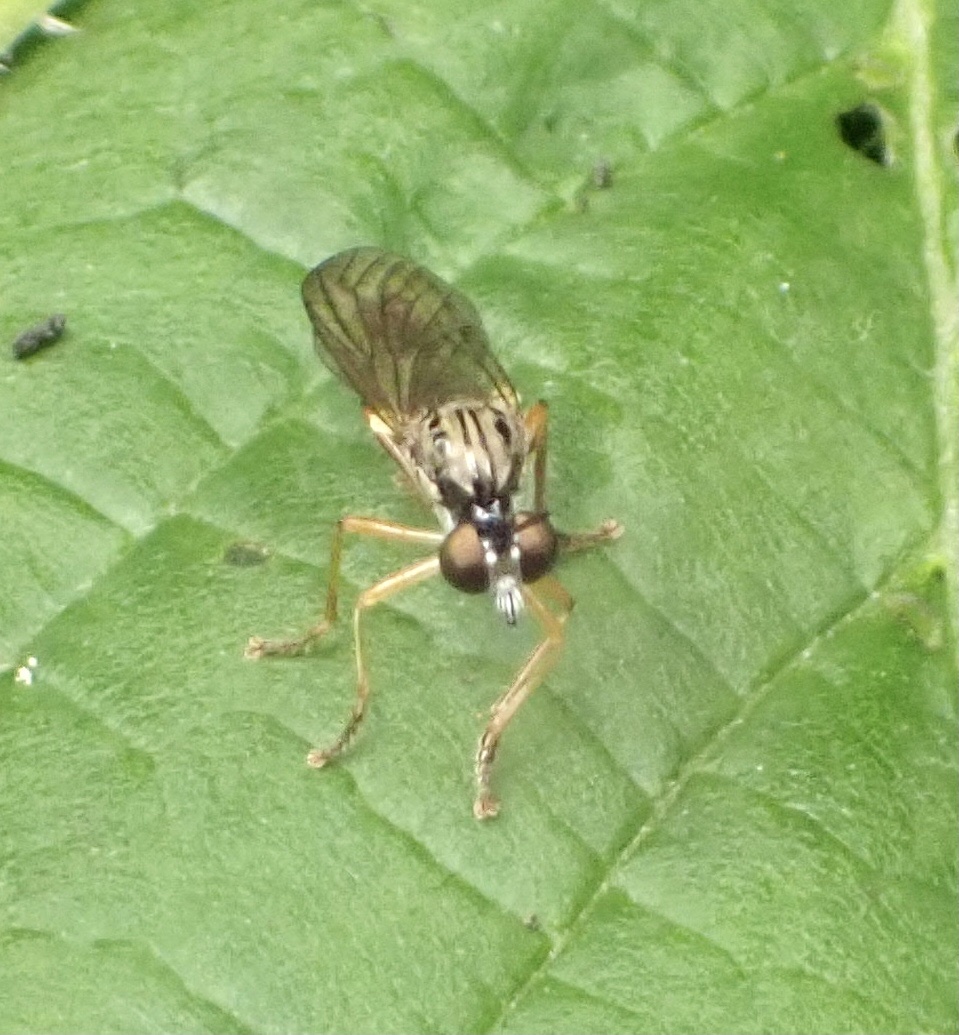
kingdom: Animalia
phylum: Arthropoda
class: Insecta
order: Diptera
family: Asilidae
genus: Dioctria
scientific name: Dioctria linearis
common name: Small yellow-legged robberfly
